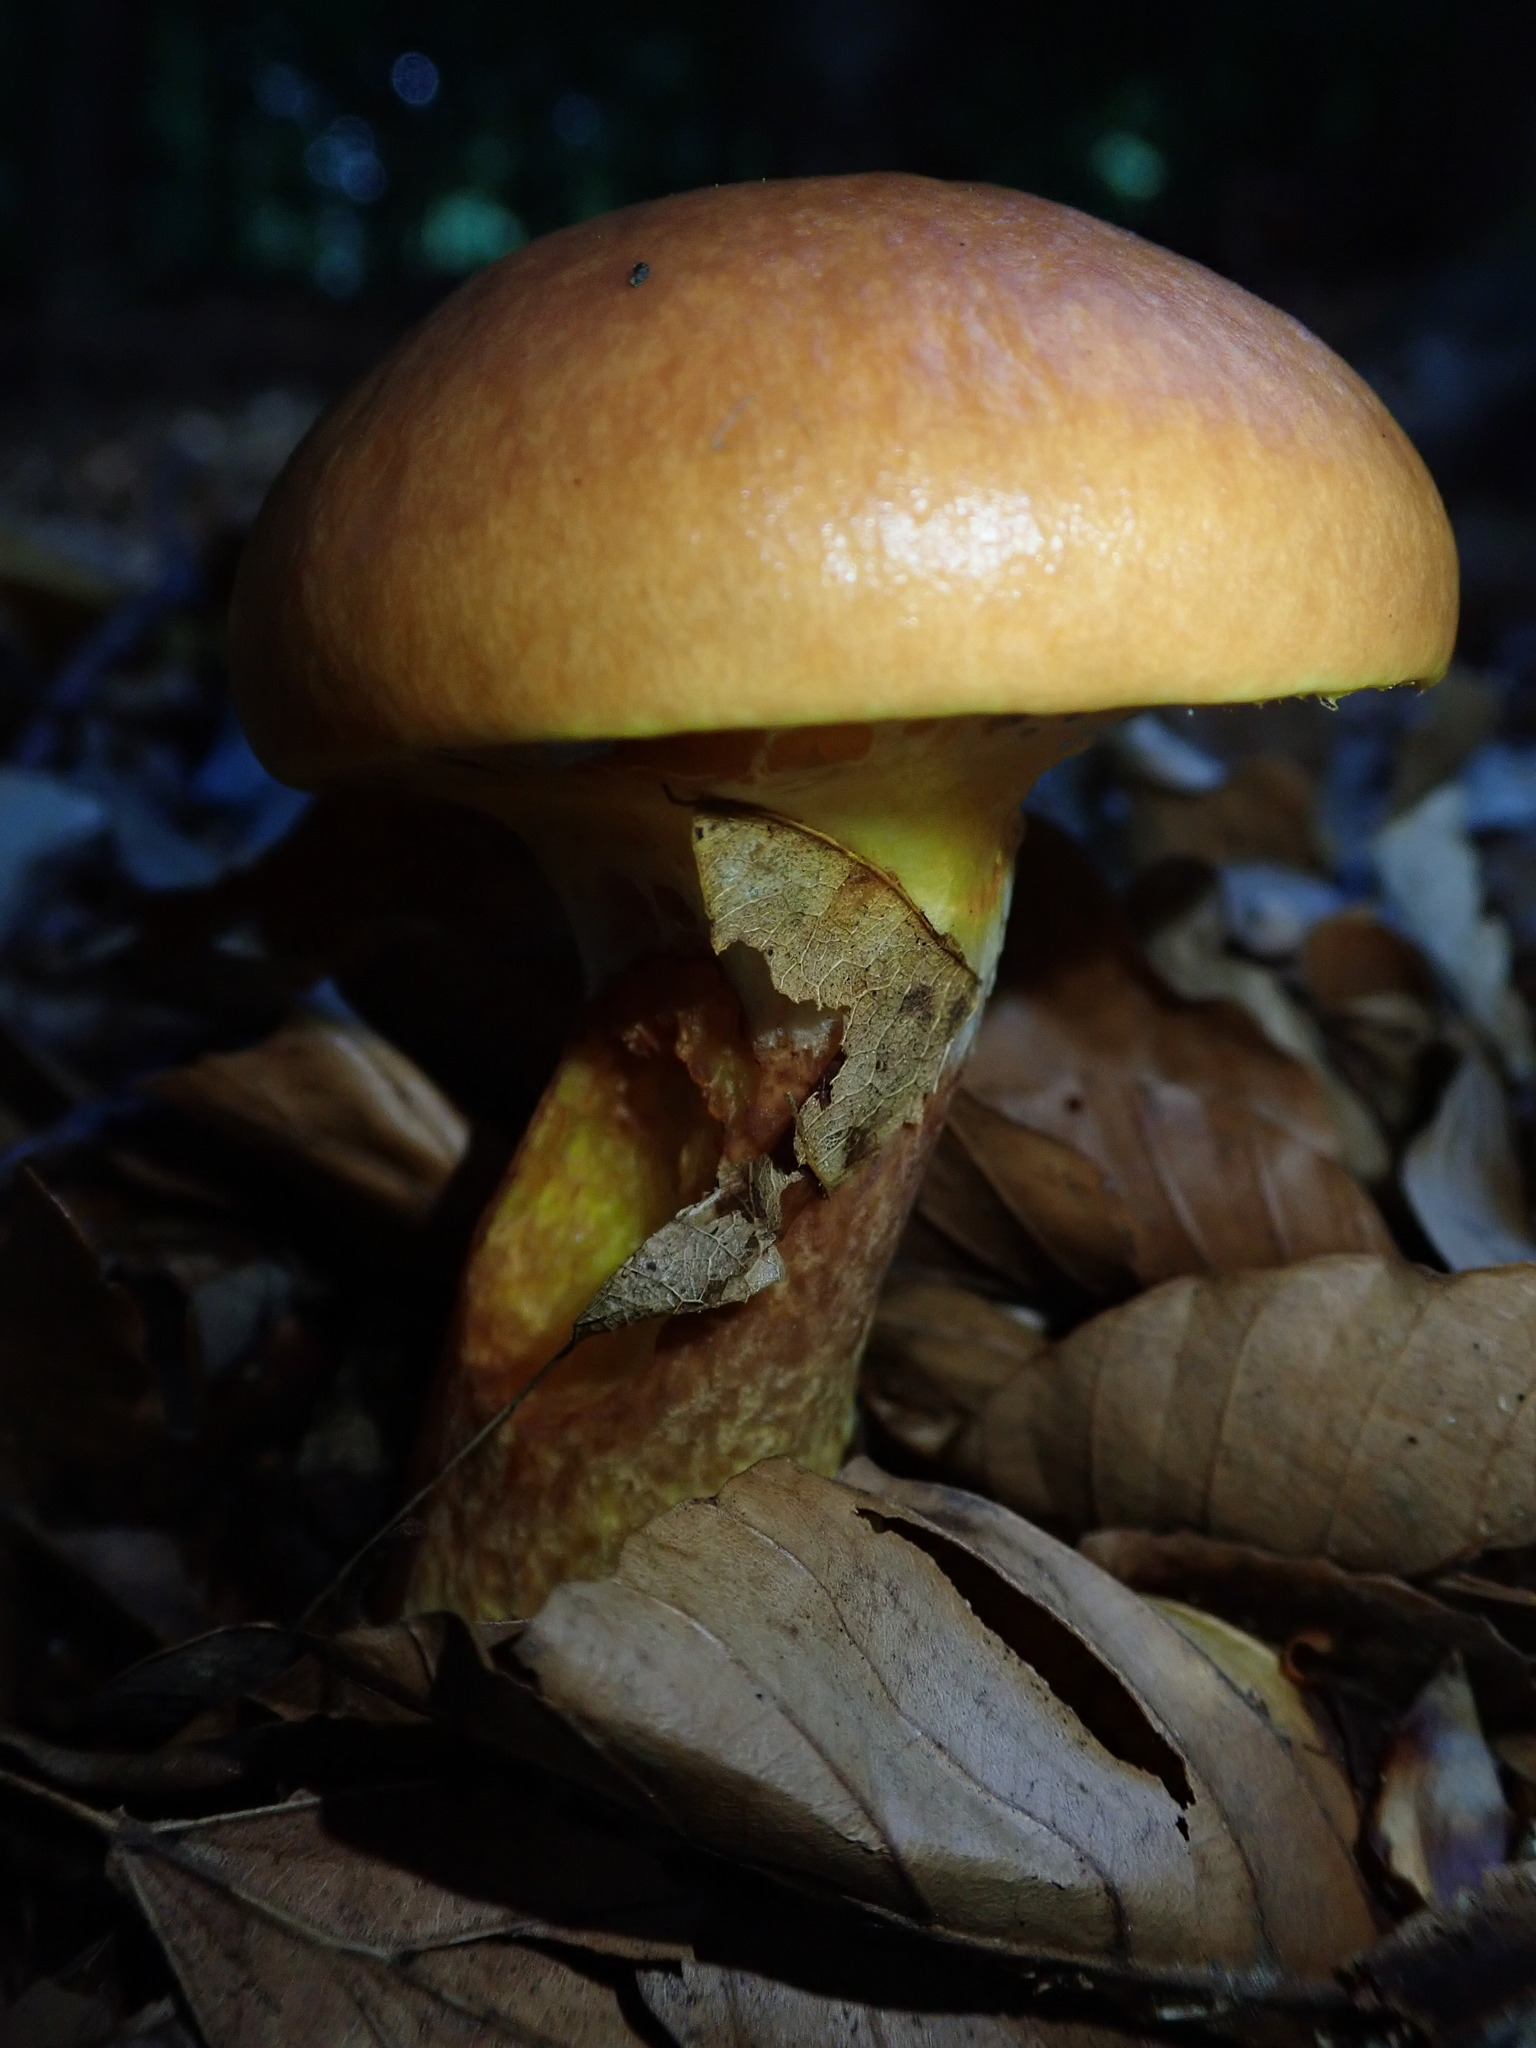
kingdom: Fungi
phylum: Basidiomycota
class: Agaricomycetes
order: Boletales
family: Suillaceae
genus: Suillus
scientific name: Suillus grevillei
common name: Larch bolete
